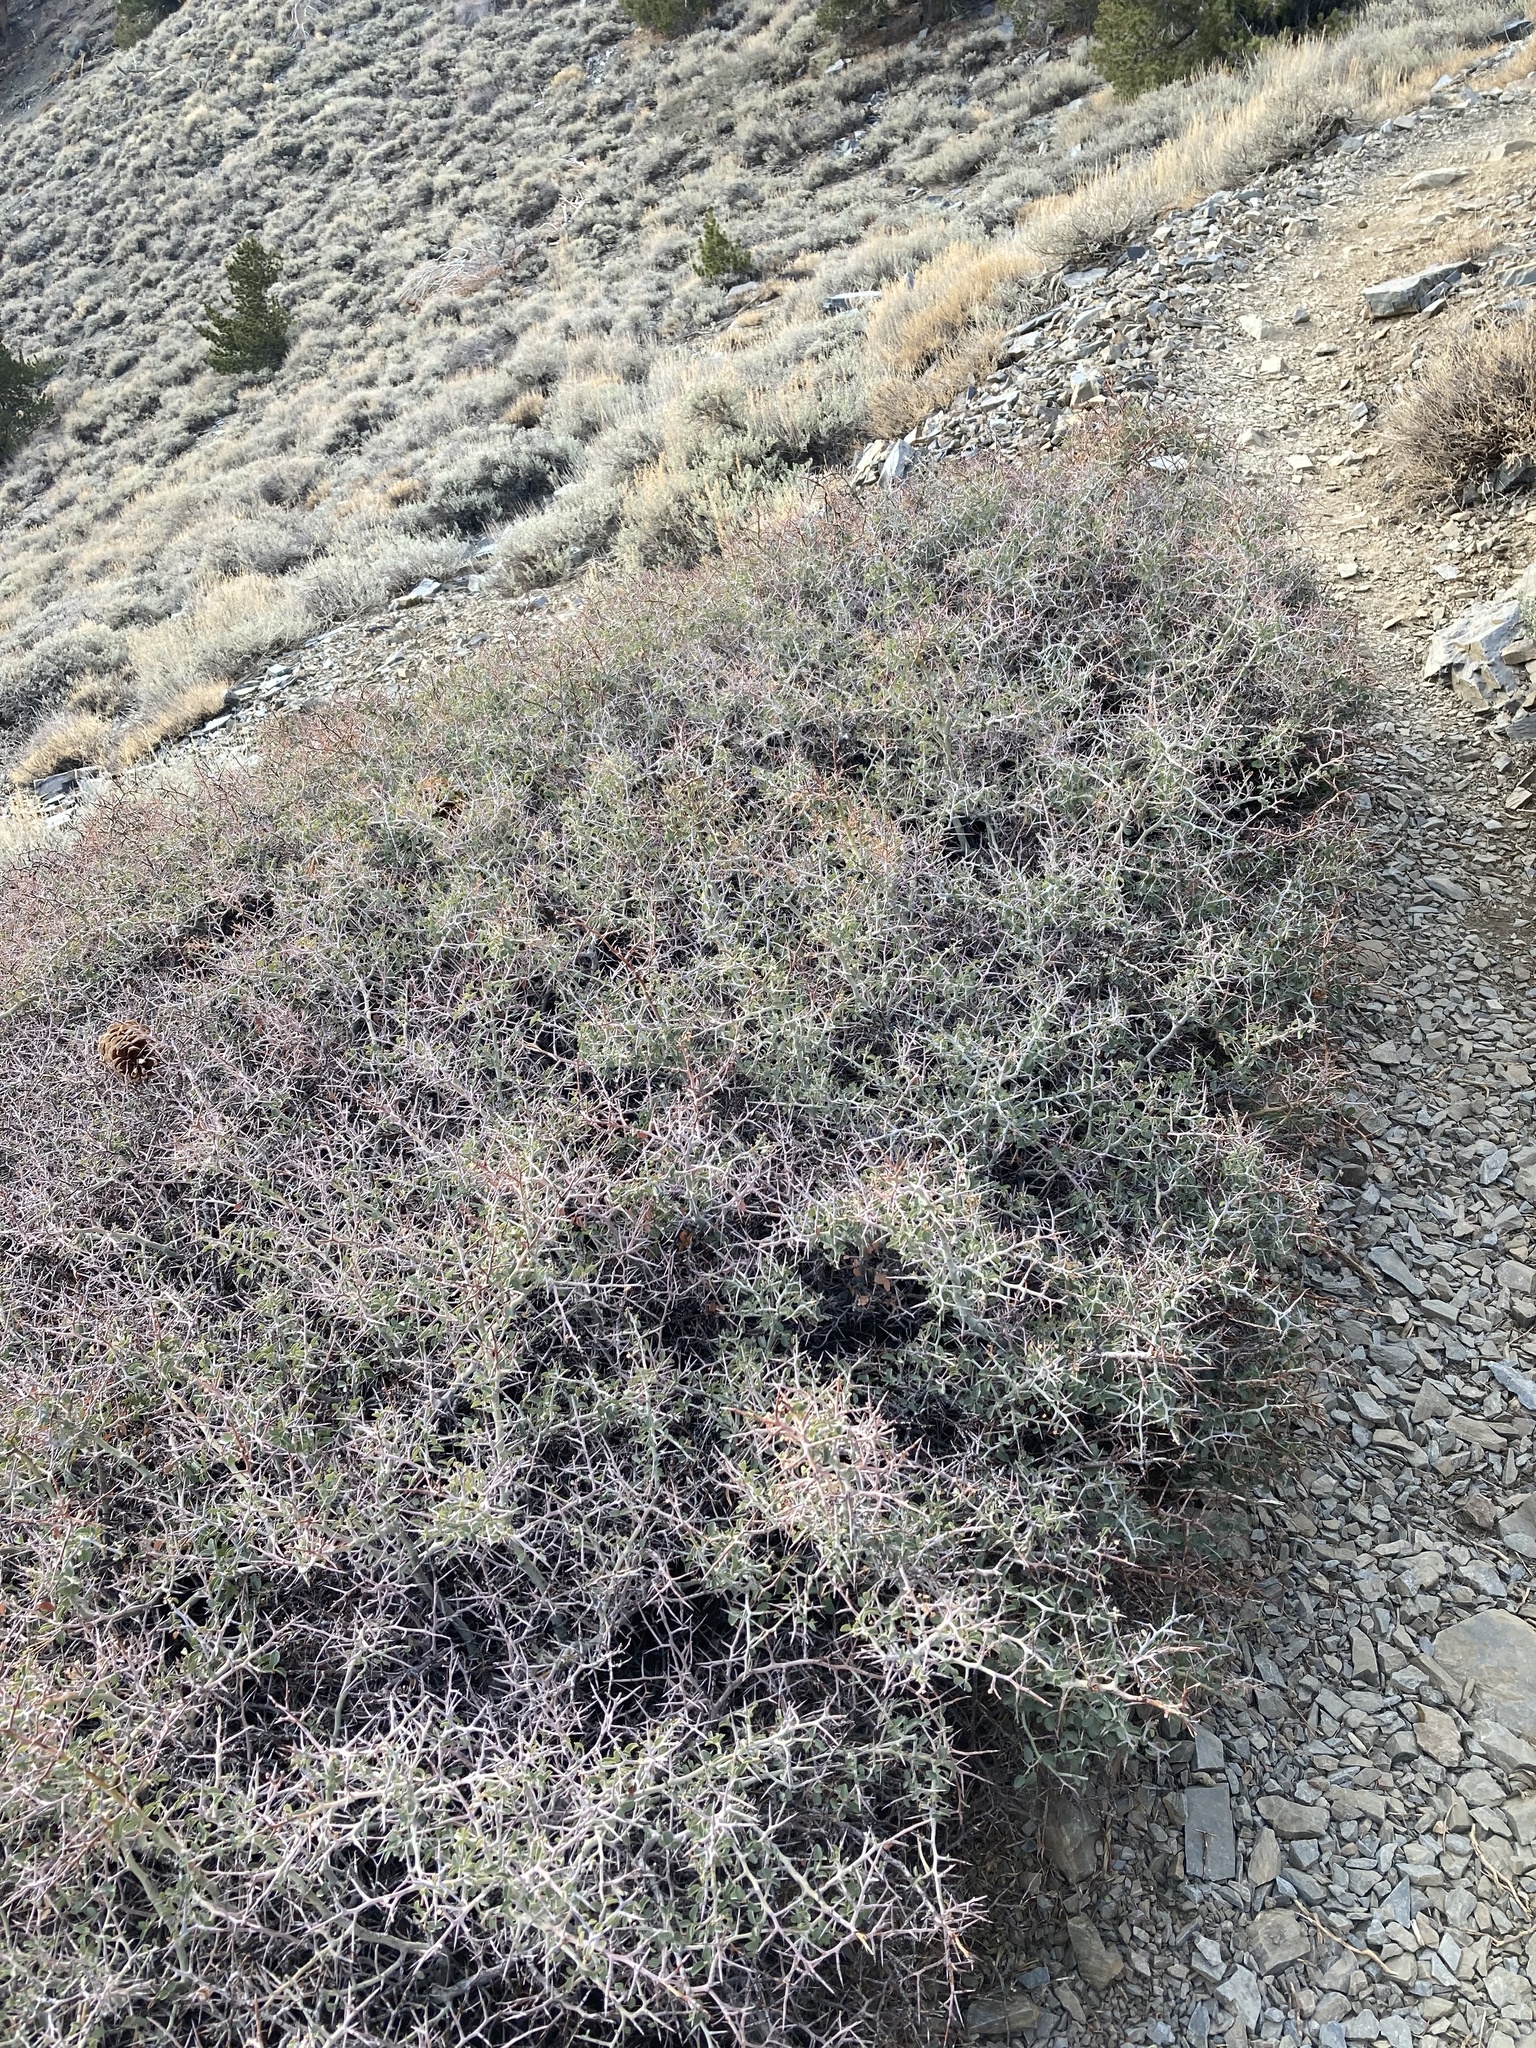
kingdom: Plantae
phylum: Tracheophyta
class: Magnoliopsida
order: Rosales
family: Rhamnaceae
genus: Ceanothus
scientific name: Ceanothus pauciflorus
